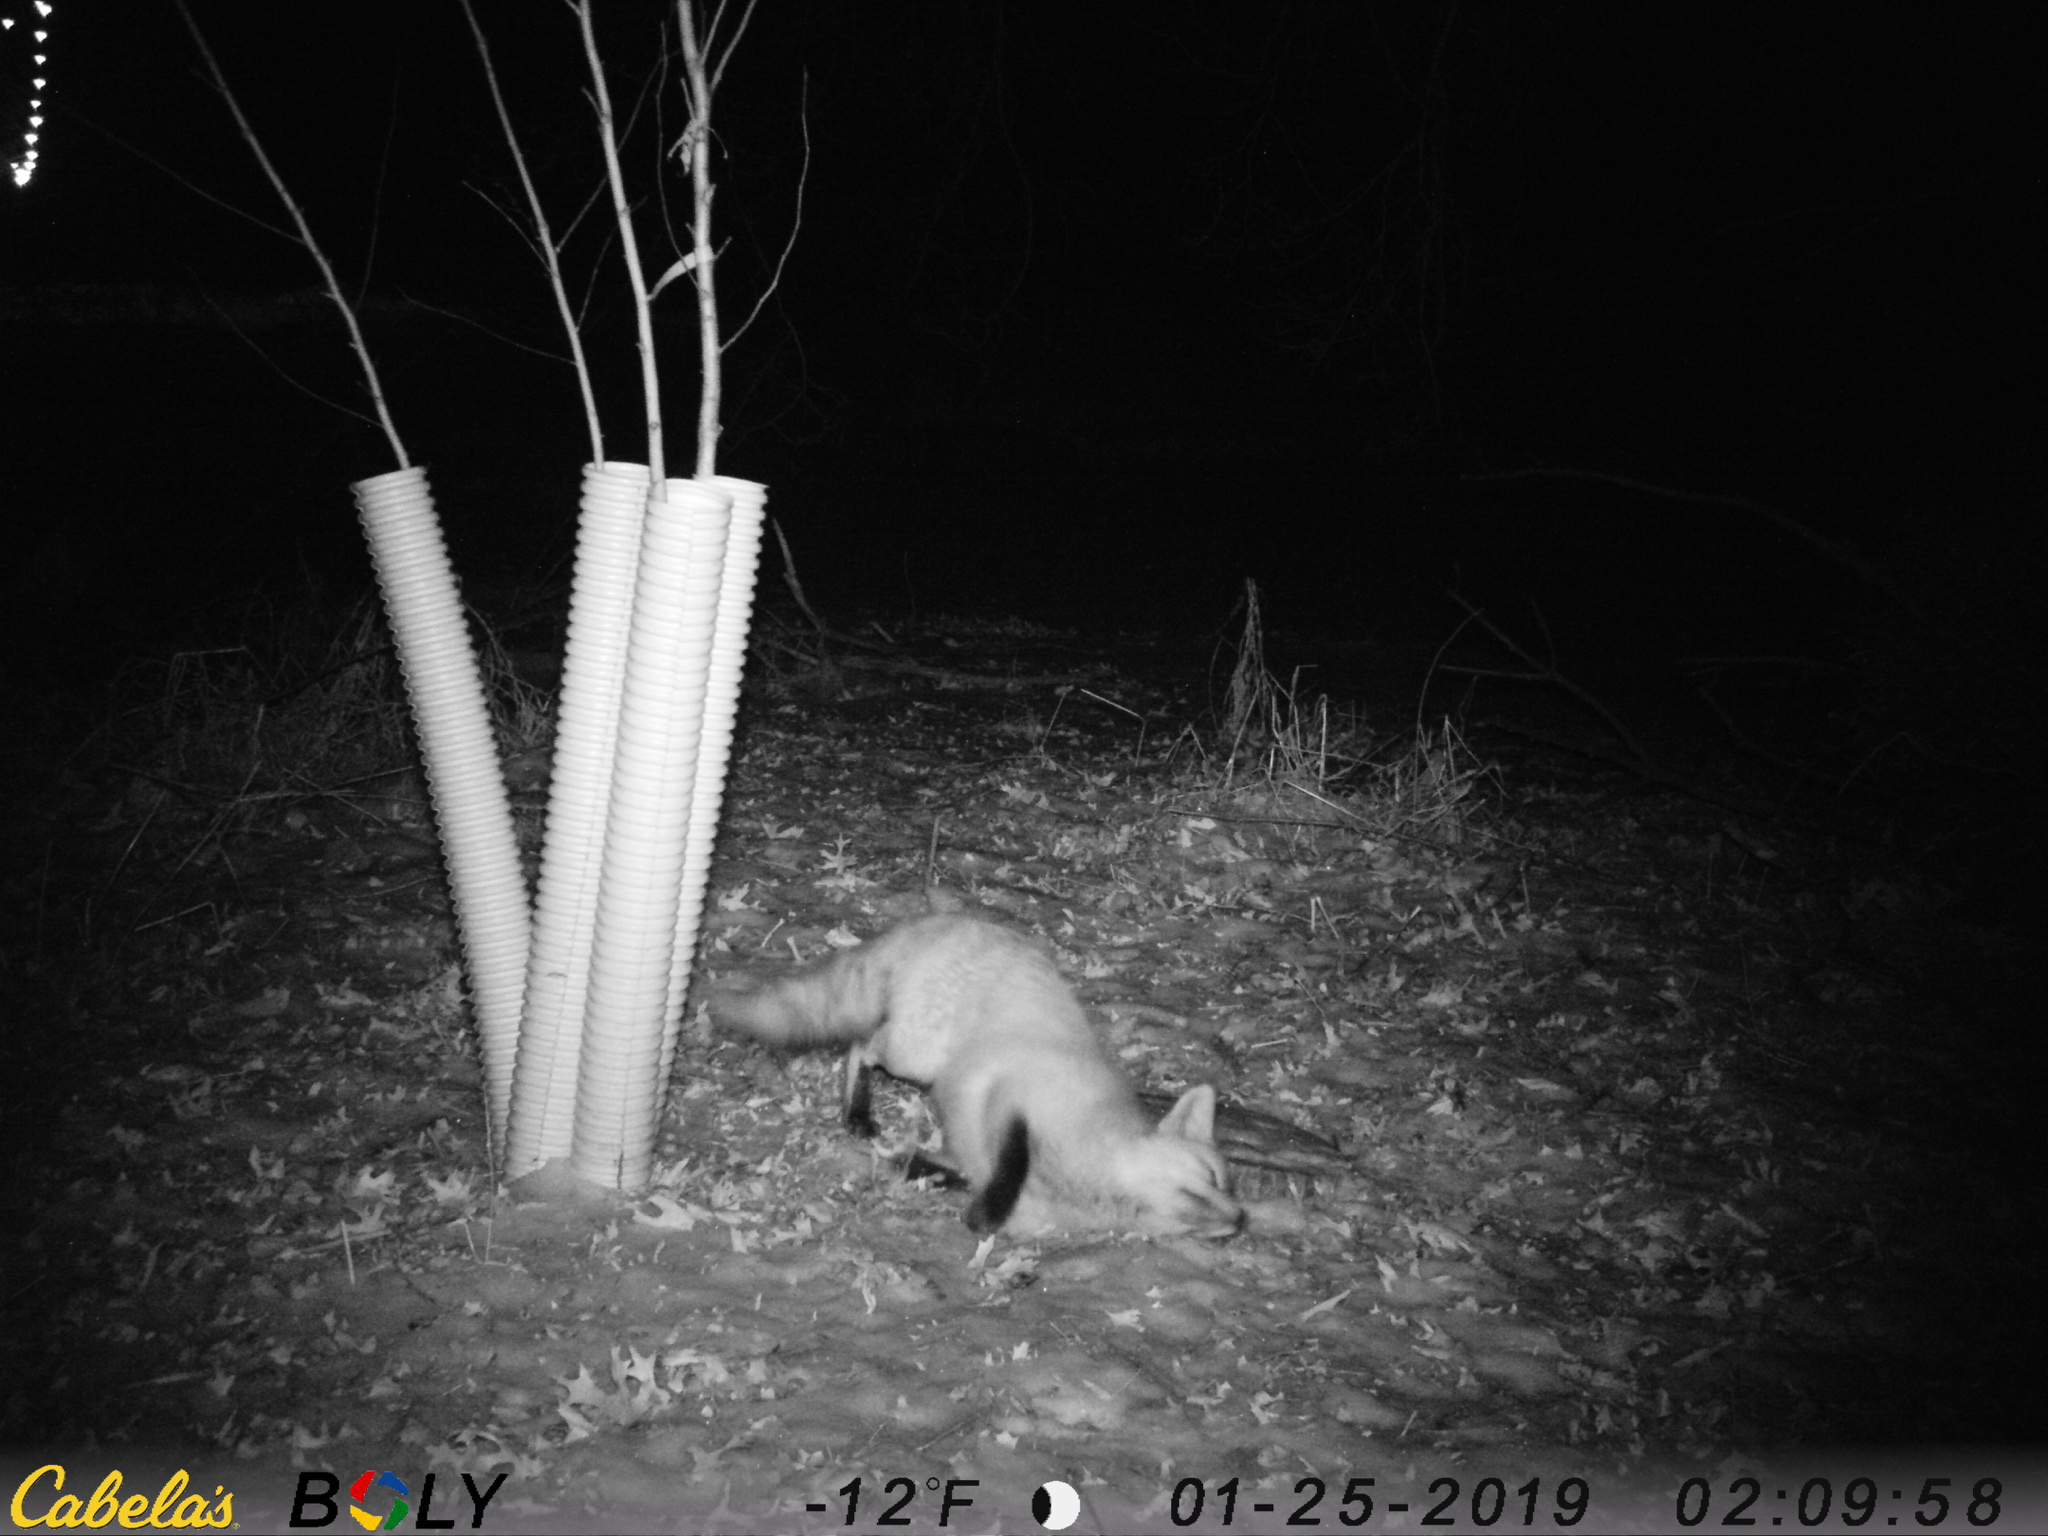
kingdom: Animalia
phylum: Chordata
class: Mammalia
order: Carnivora
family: Canidae
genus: Vulpes
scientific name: Vulpes vulpes
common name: Red fox
